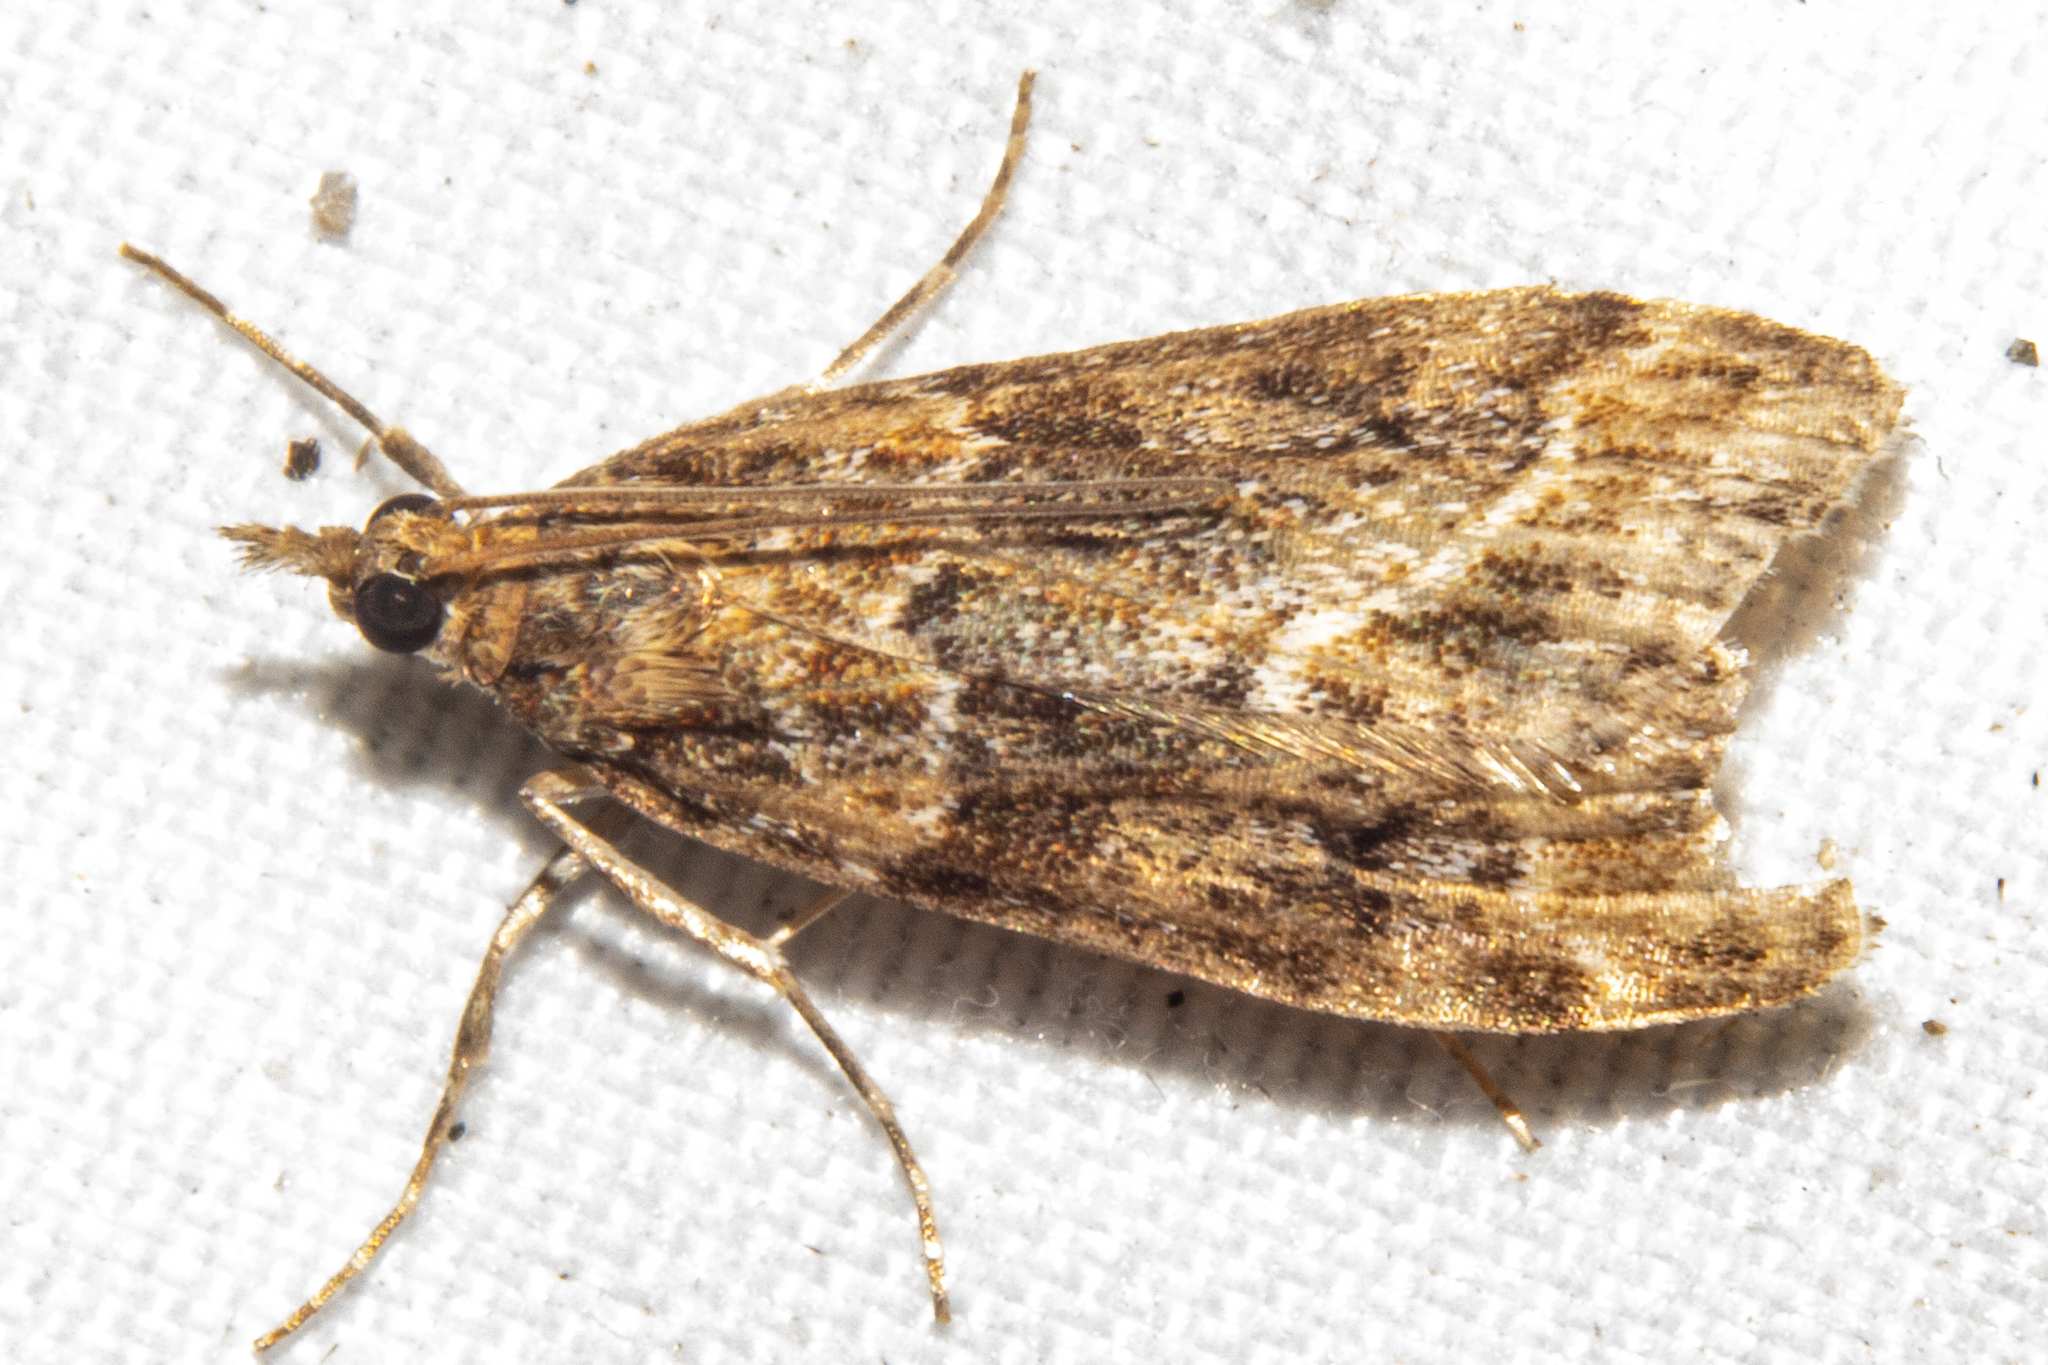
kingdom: Animalia
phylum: Arthropoda
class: Insecta
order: Lepidoptera
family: Crambidae
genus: Scoparia
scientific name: Scoparia animosa
